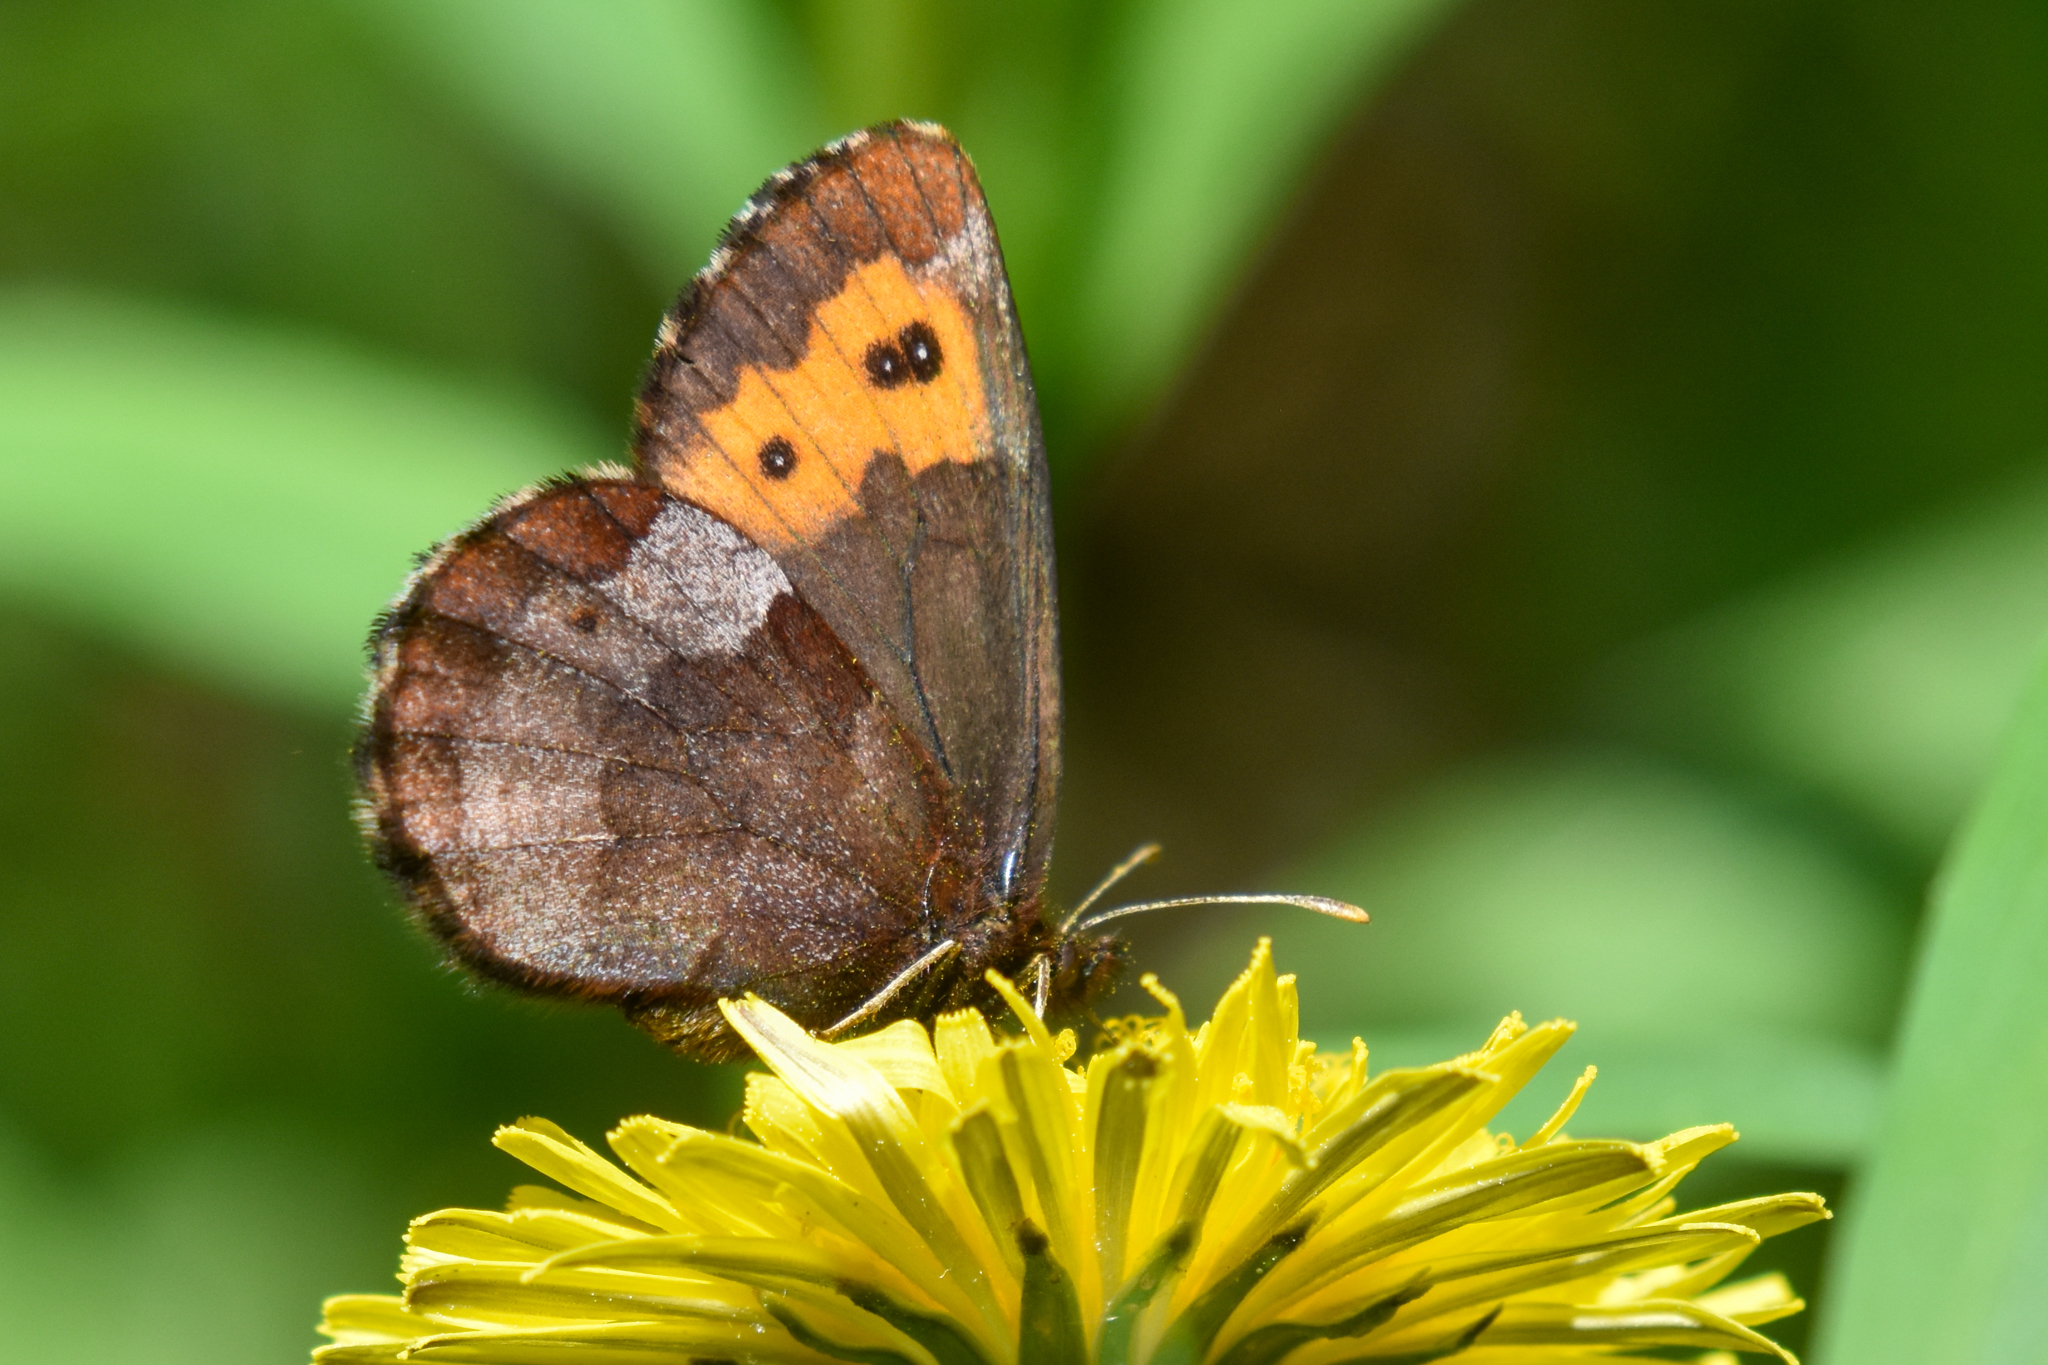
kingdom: Animalia
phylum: Arthropoda
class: Insecta
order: Lepidoptera
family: Nymphalidae
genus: Erebia
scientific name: Erebia vidleri
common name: Vidler's alpine
